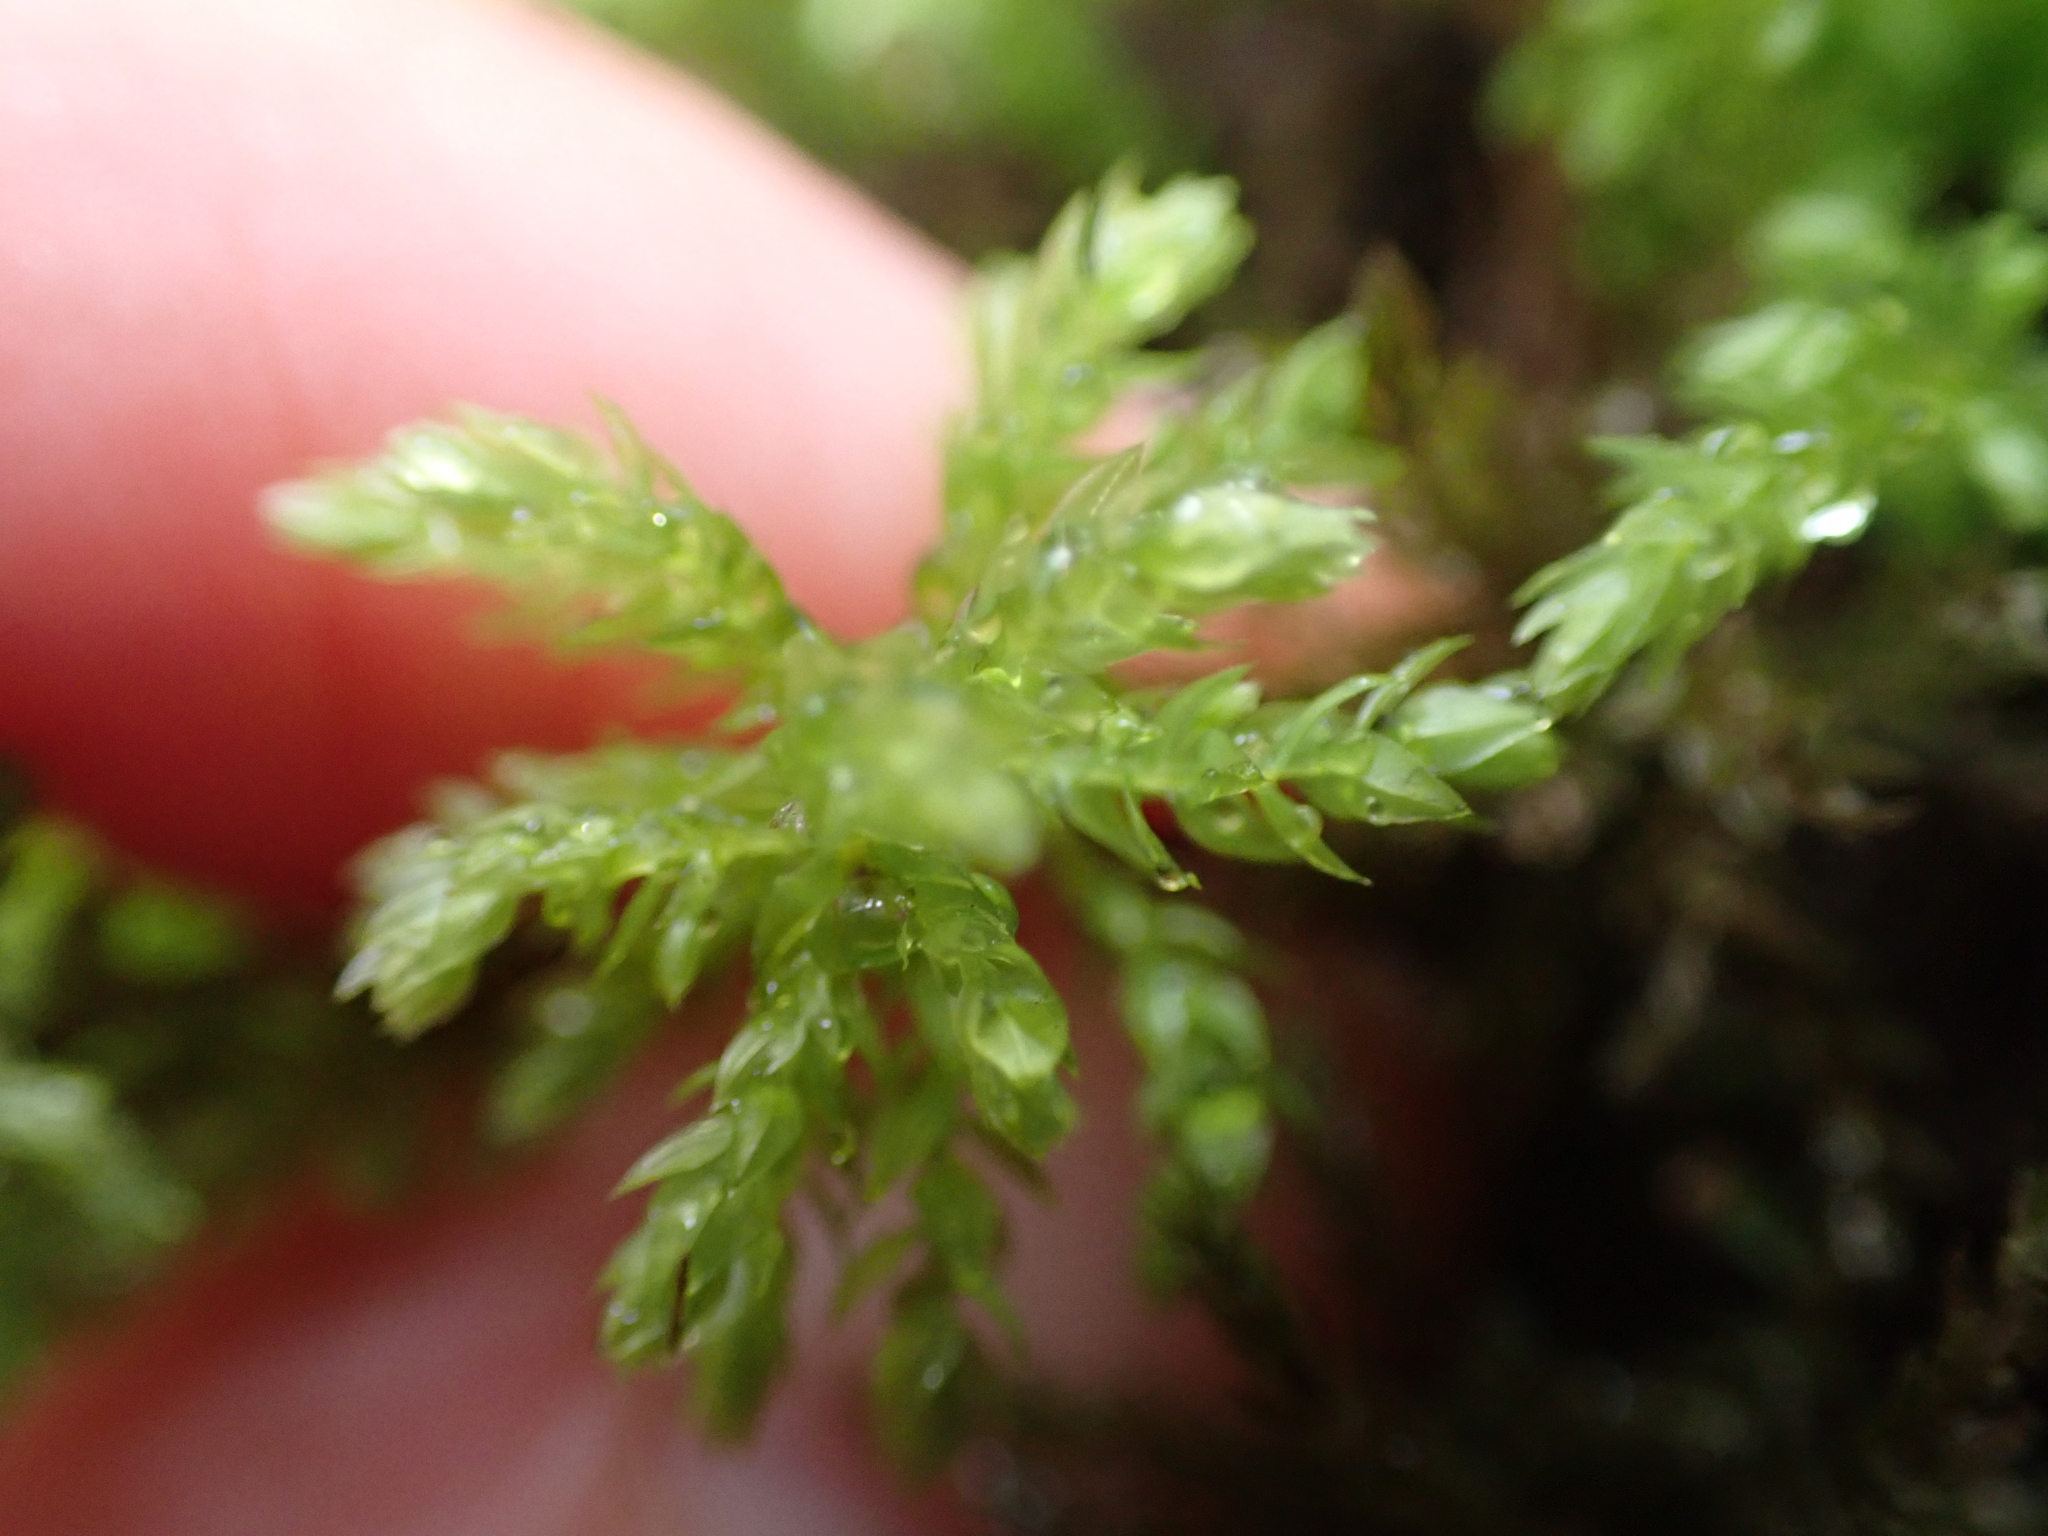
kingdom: Plantae
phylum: Bryophyta
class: Bryopsida
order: Bryales
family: Mniaceae
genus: Leucolepis
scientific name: Leucolepis acanthoneura
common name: Leucolepis umbrella moss
